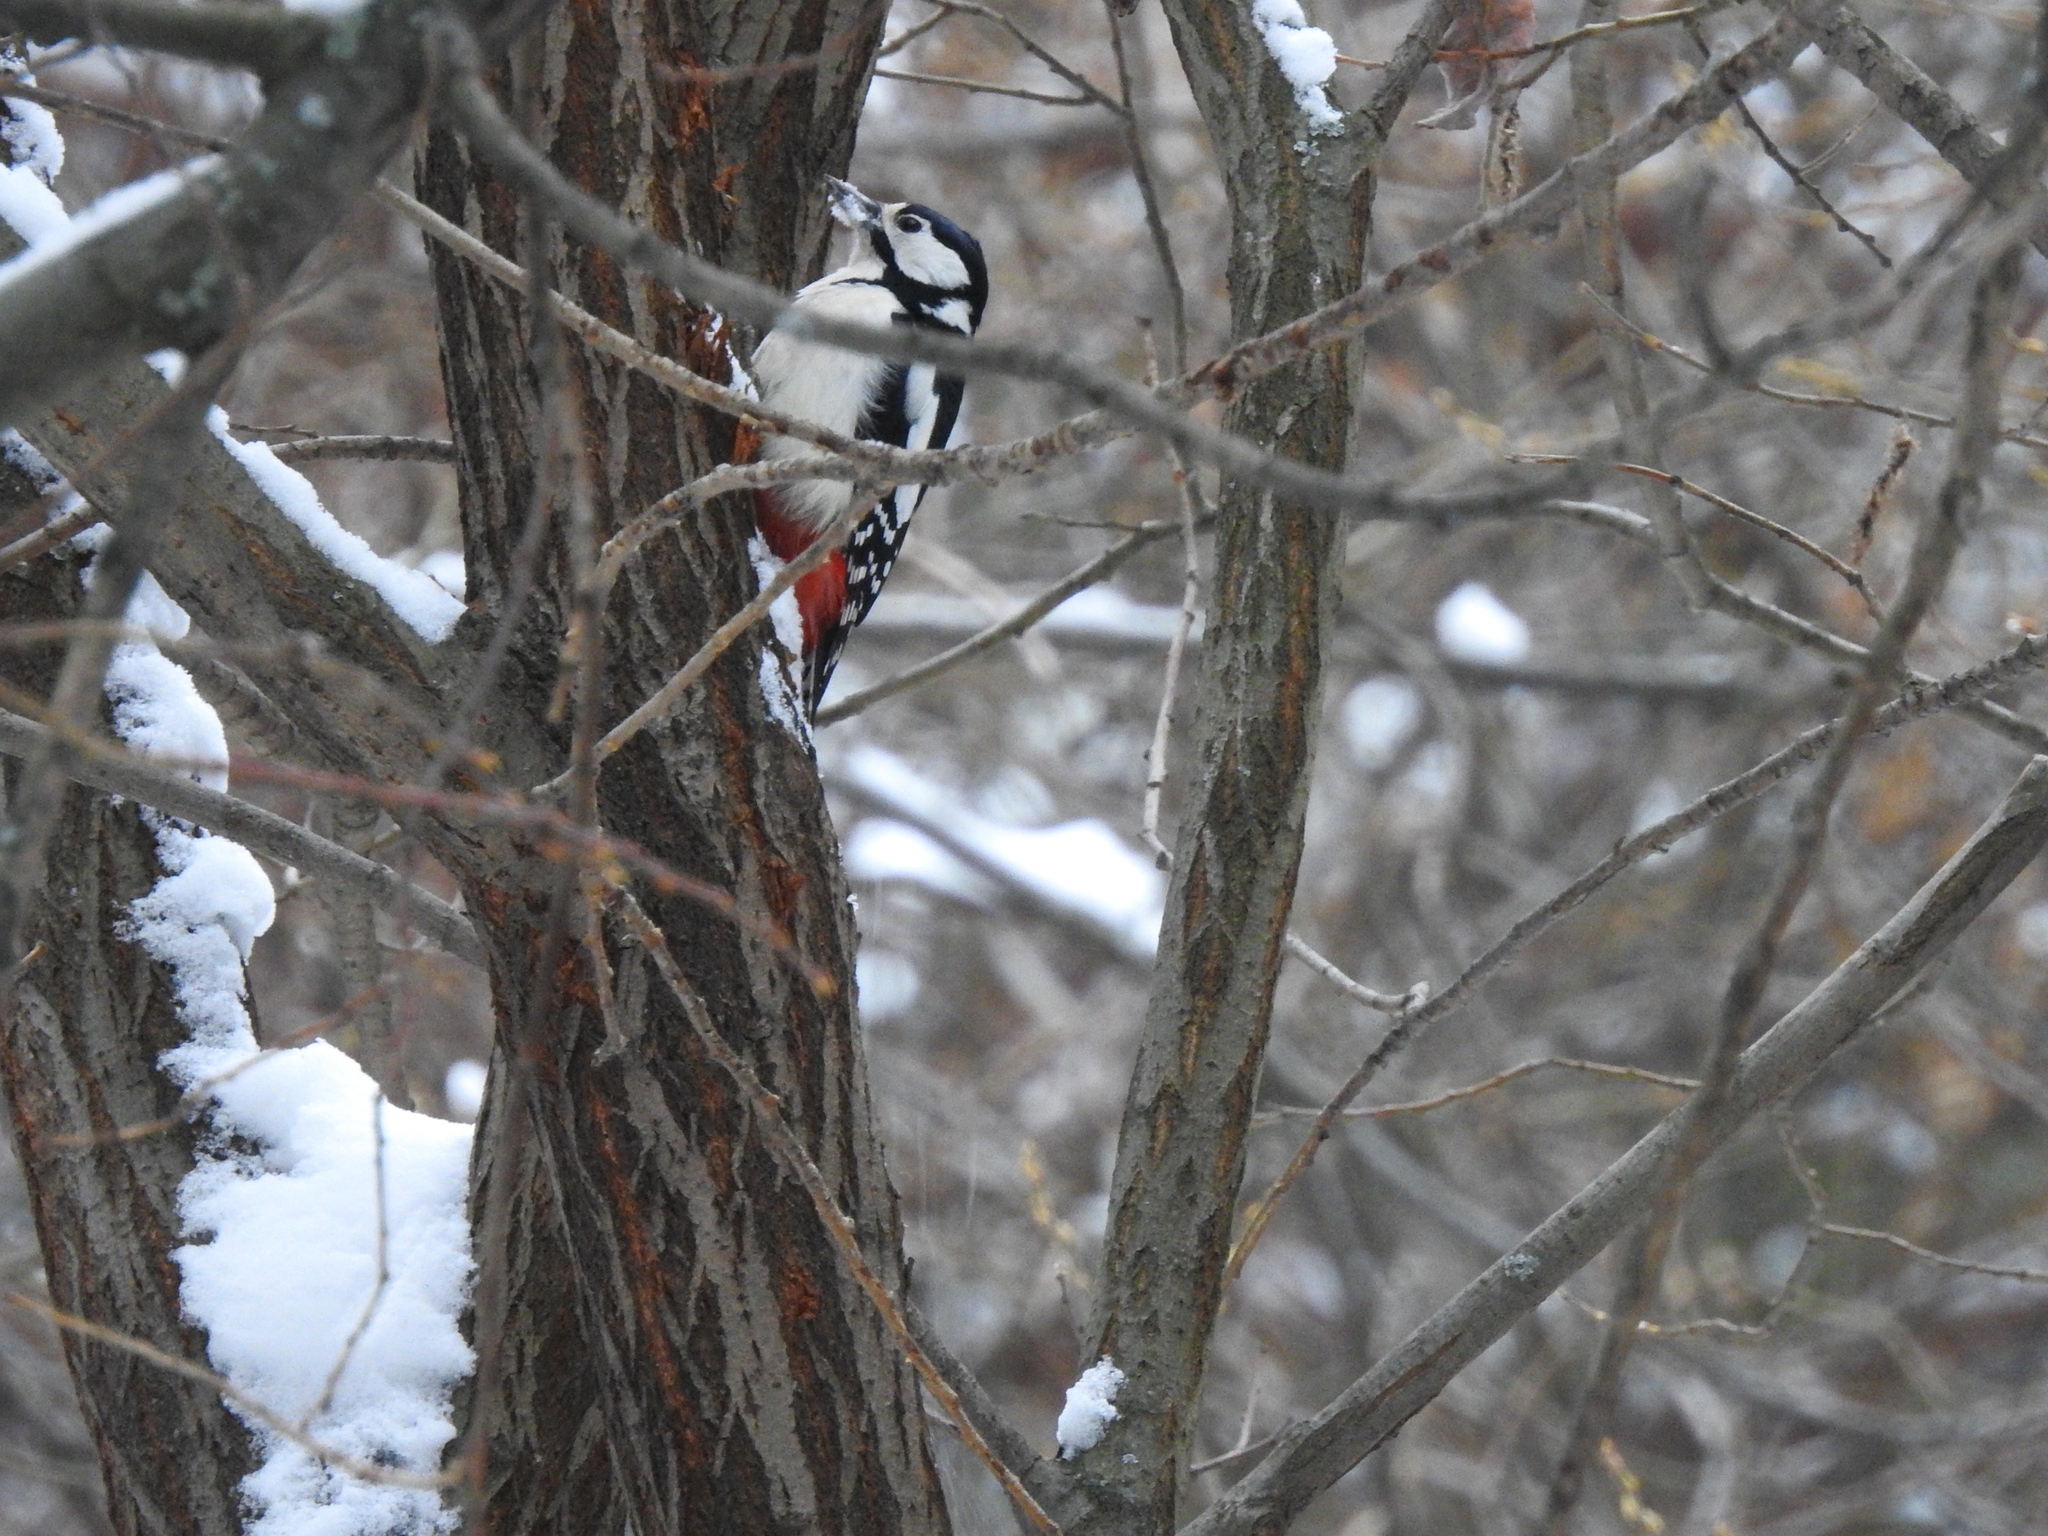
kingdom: Animalia
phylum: Chordata
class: Aves
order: Piciformes
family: Picidae
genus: Dendrocopos
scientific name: Dendrocopos major
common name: Great spotted woodpecker
